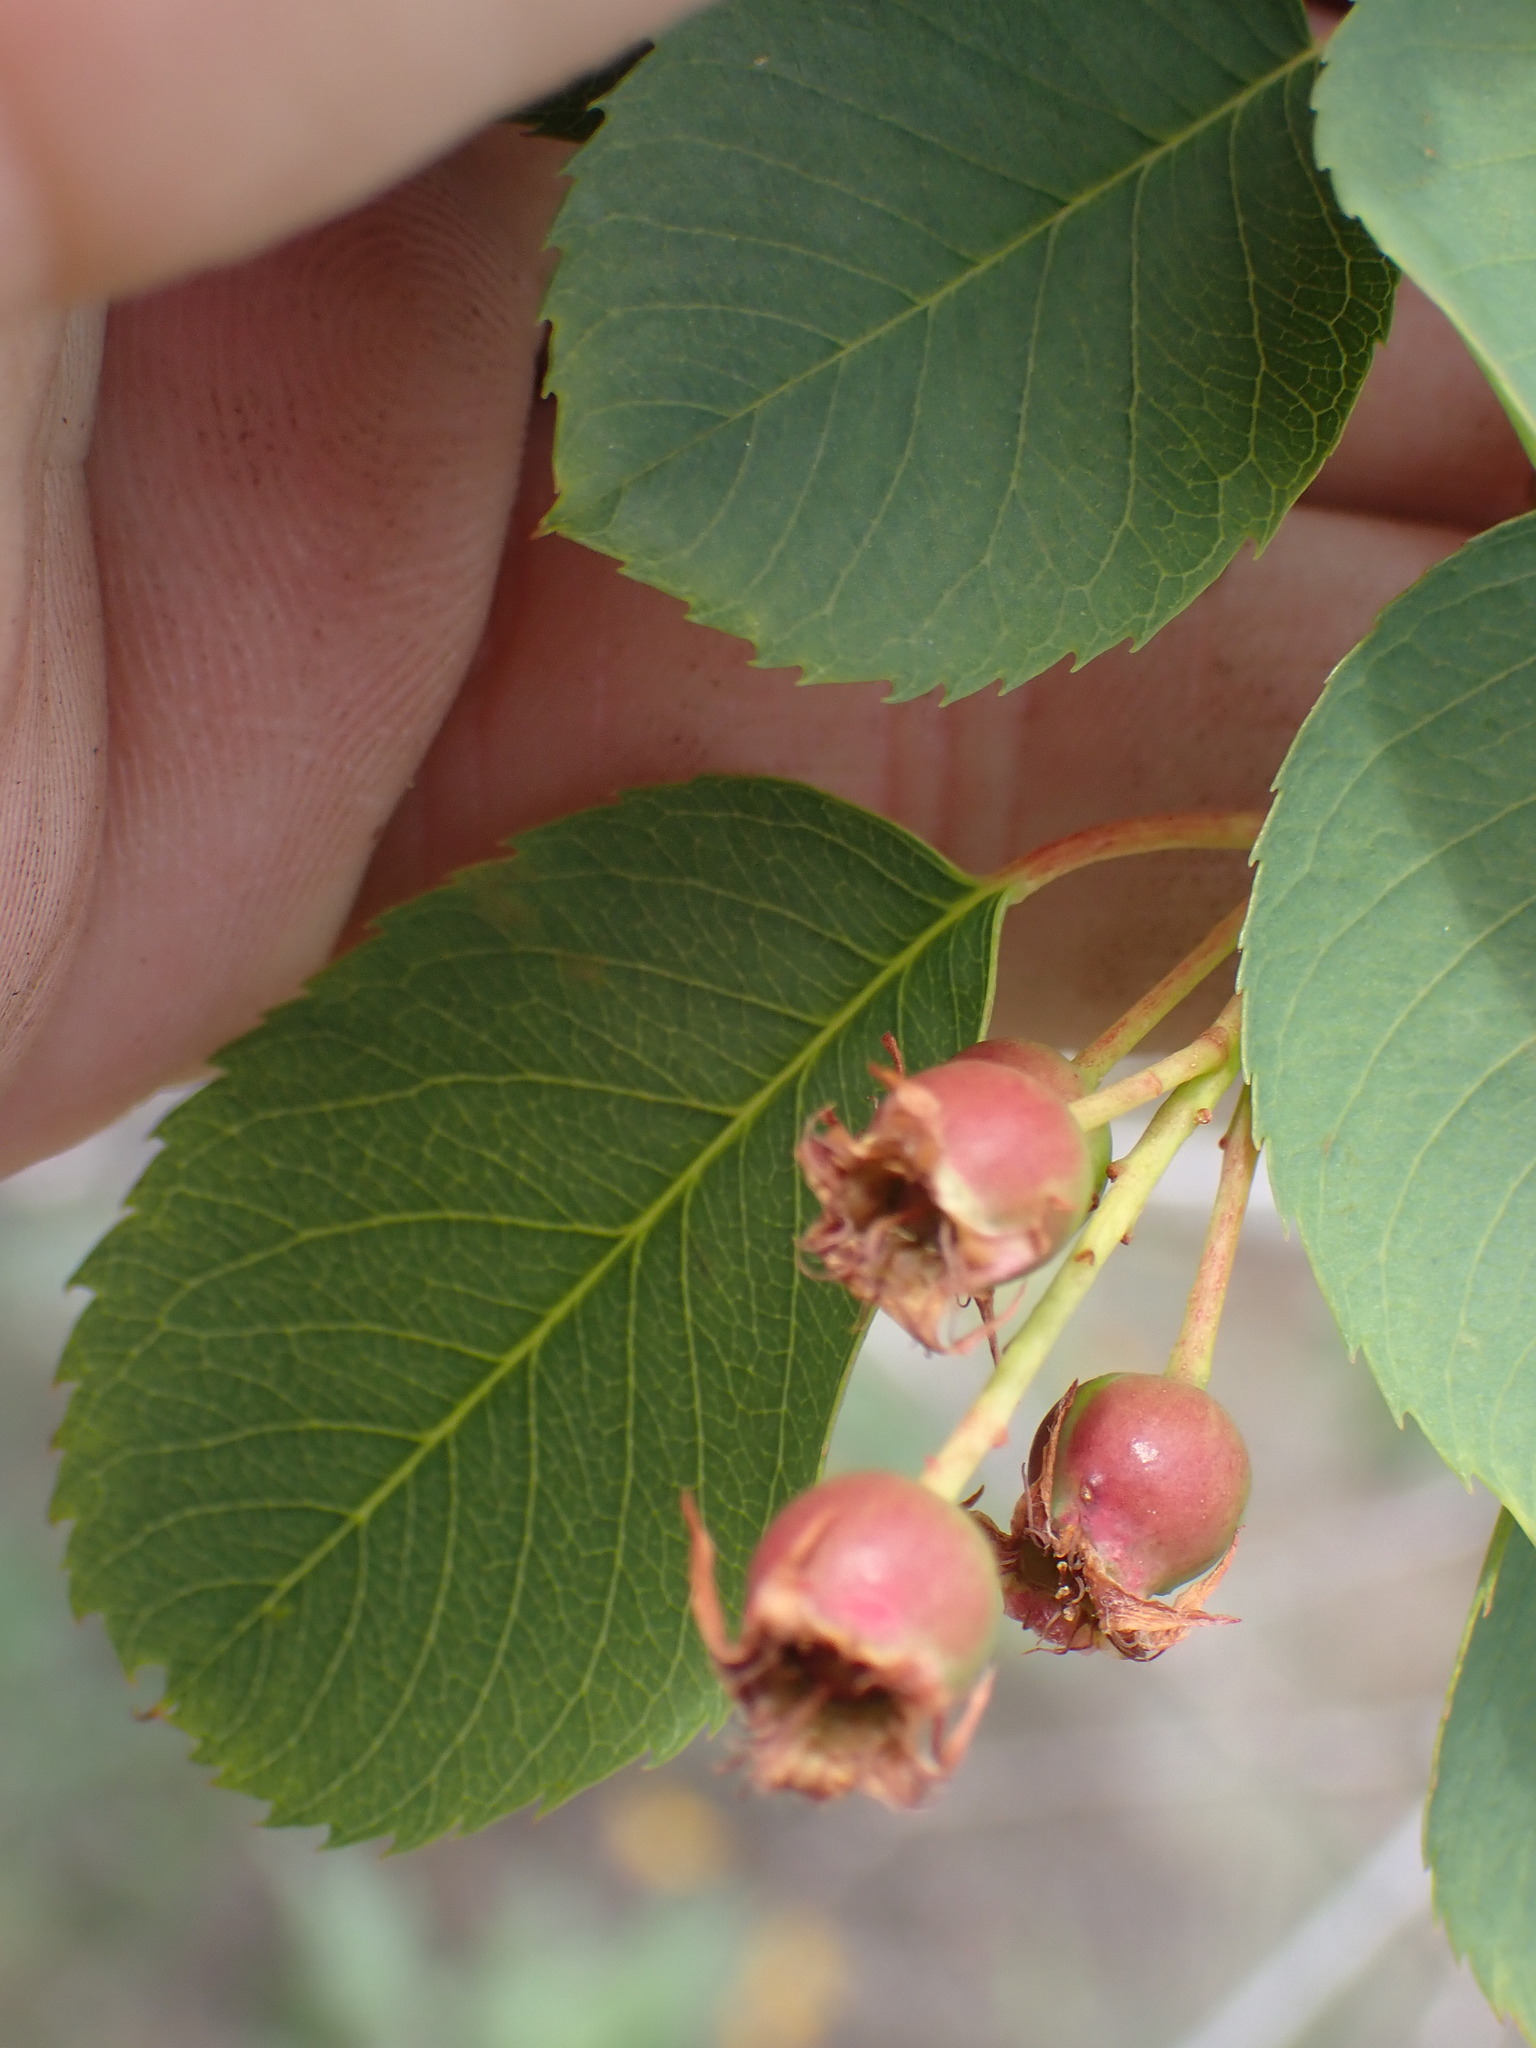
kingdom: Plantae
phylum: Tracheophyta
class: Magnoliopsida
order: Rosales
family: Rosaceae
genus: Amelanchier
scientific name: Amelanchier alnifolia
